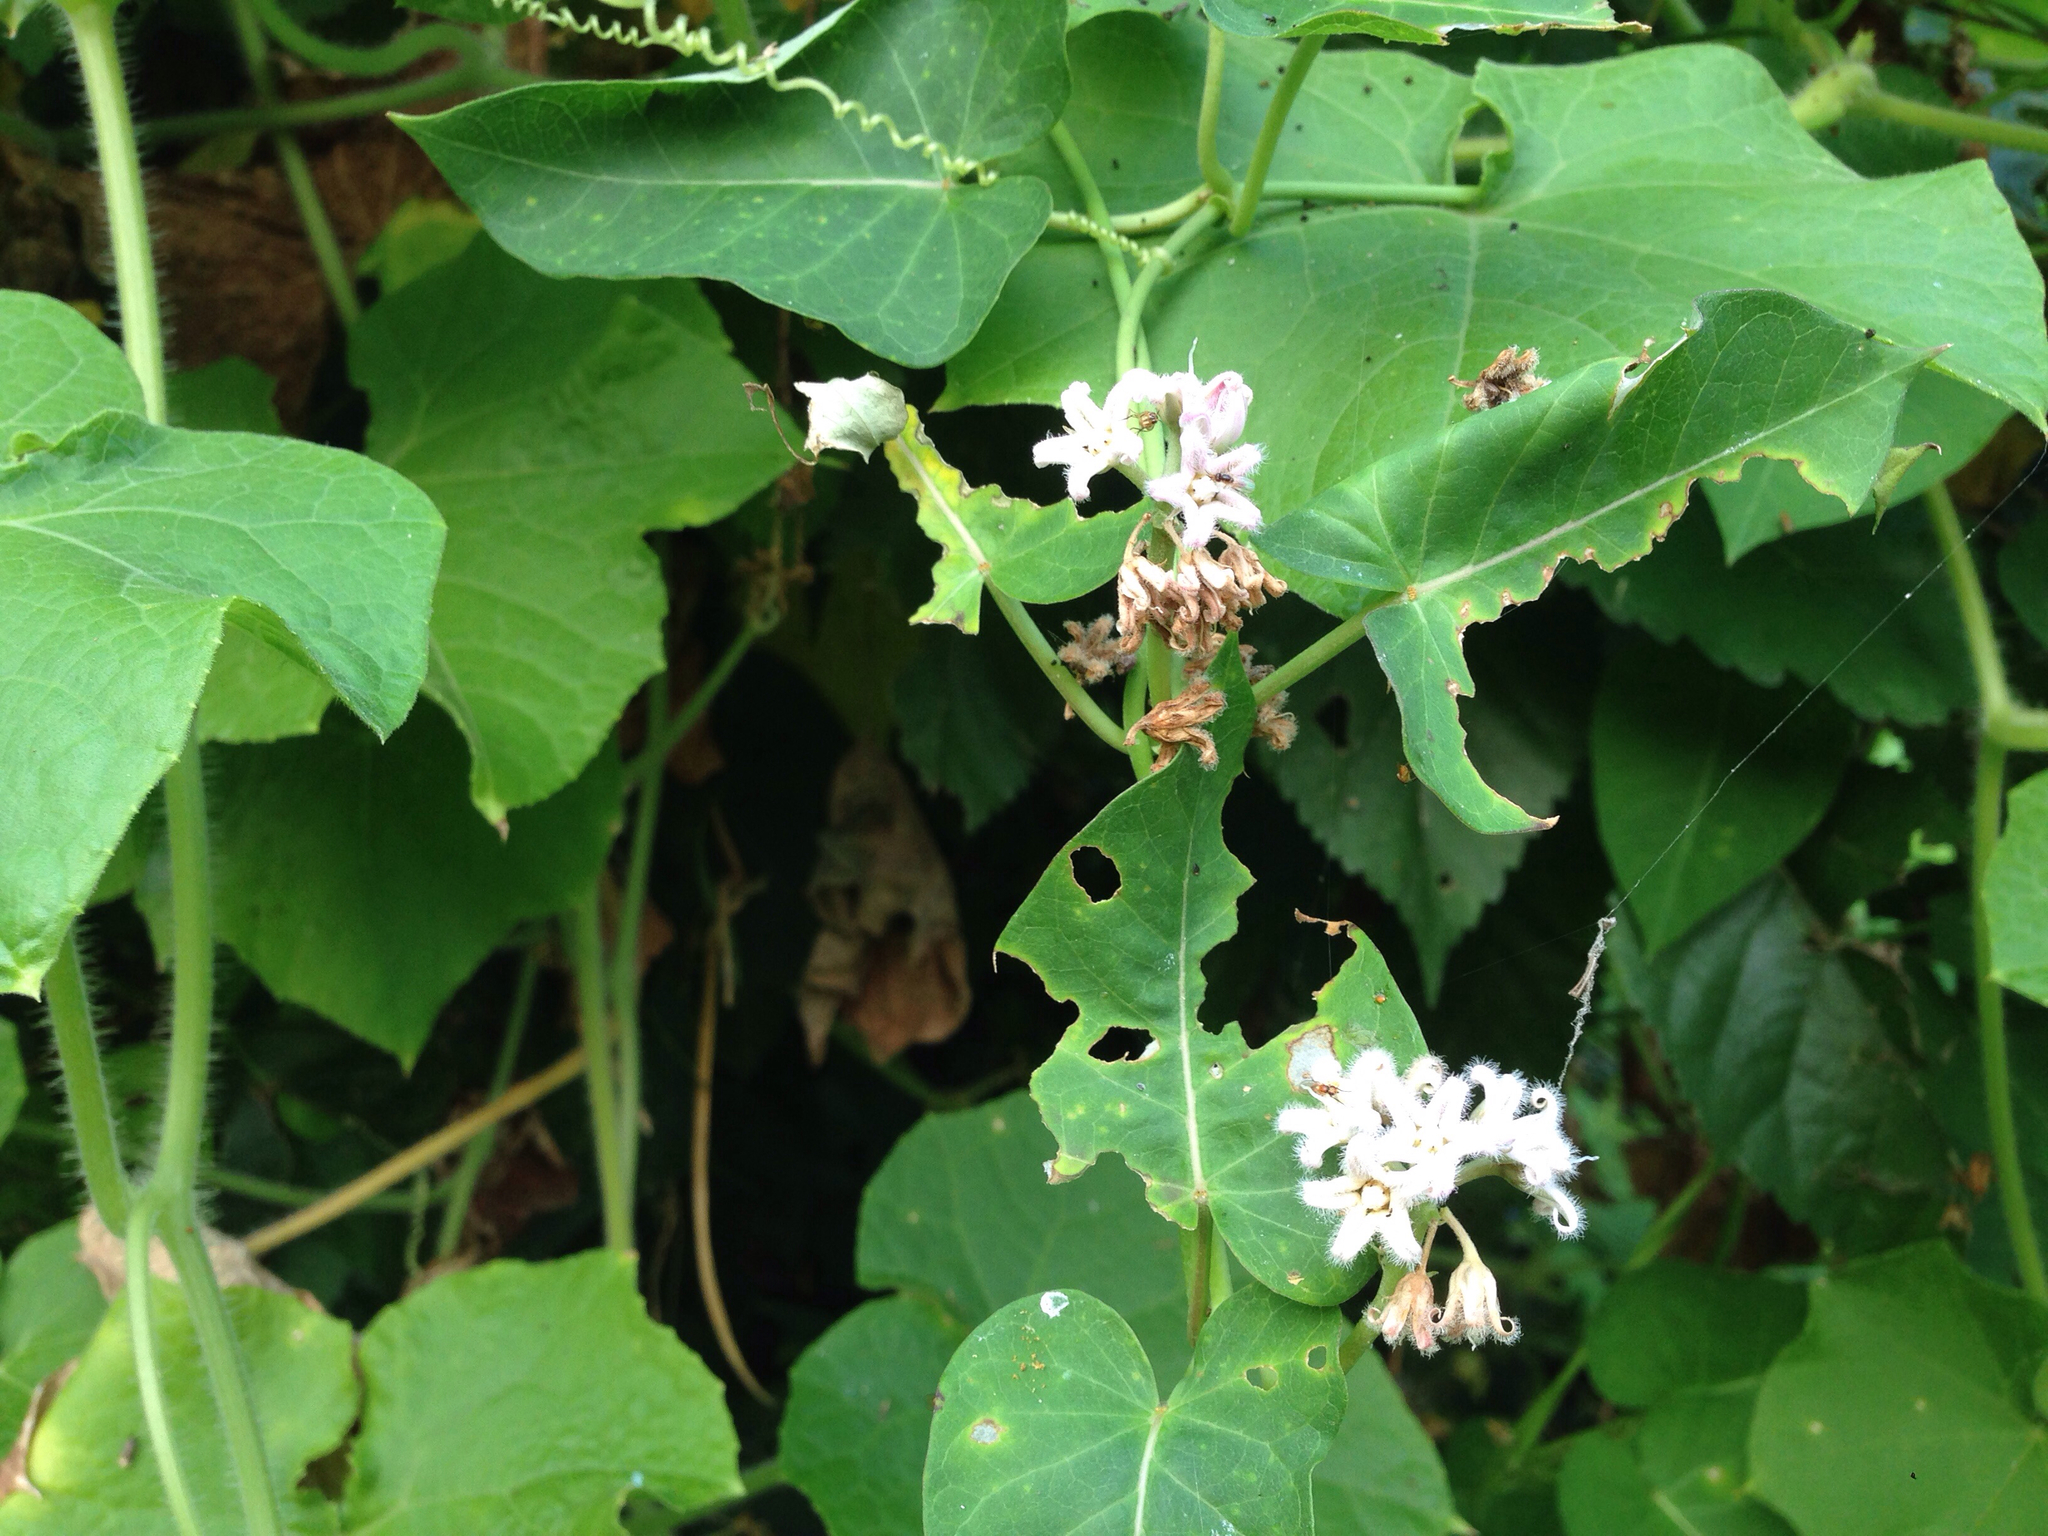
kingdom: Plantae
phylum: Tracheophyta
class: Magnoliopsida
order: Gentianales
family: Apocynaceae
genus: Cynanchum
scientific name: Cynanchum rostellatum
